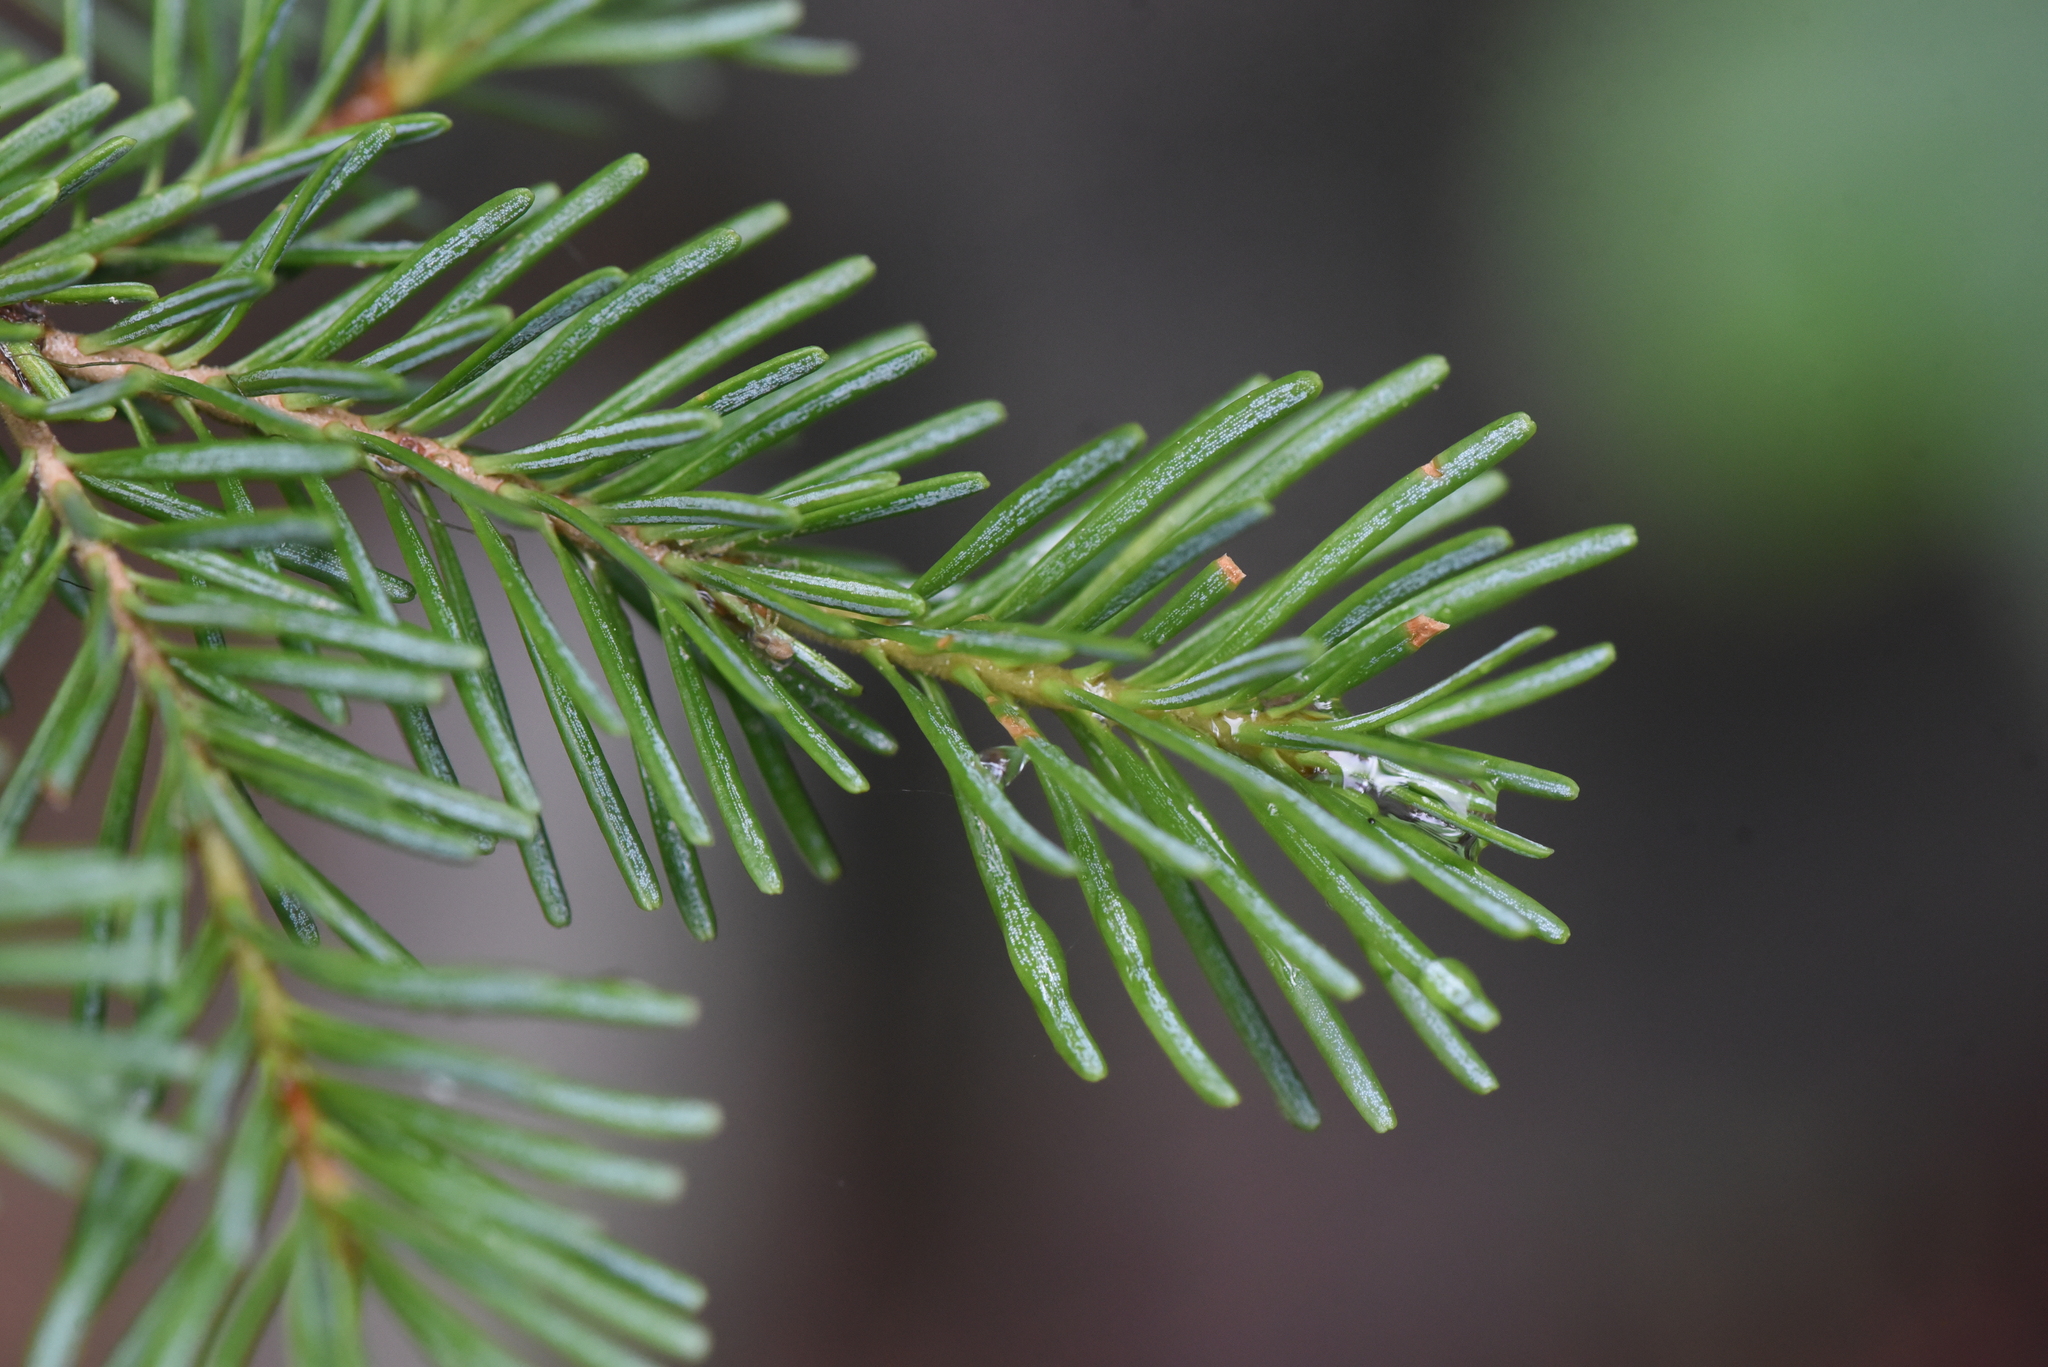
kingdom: Plantae
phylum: Tracheophyta
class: Pinopsida
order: Pinales
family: Pinaceae
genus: Abies
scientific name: Abies lasiocarpa
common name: Subalpine fir
